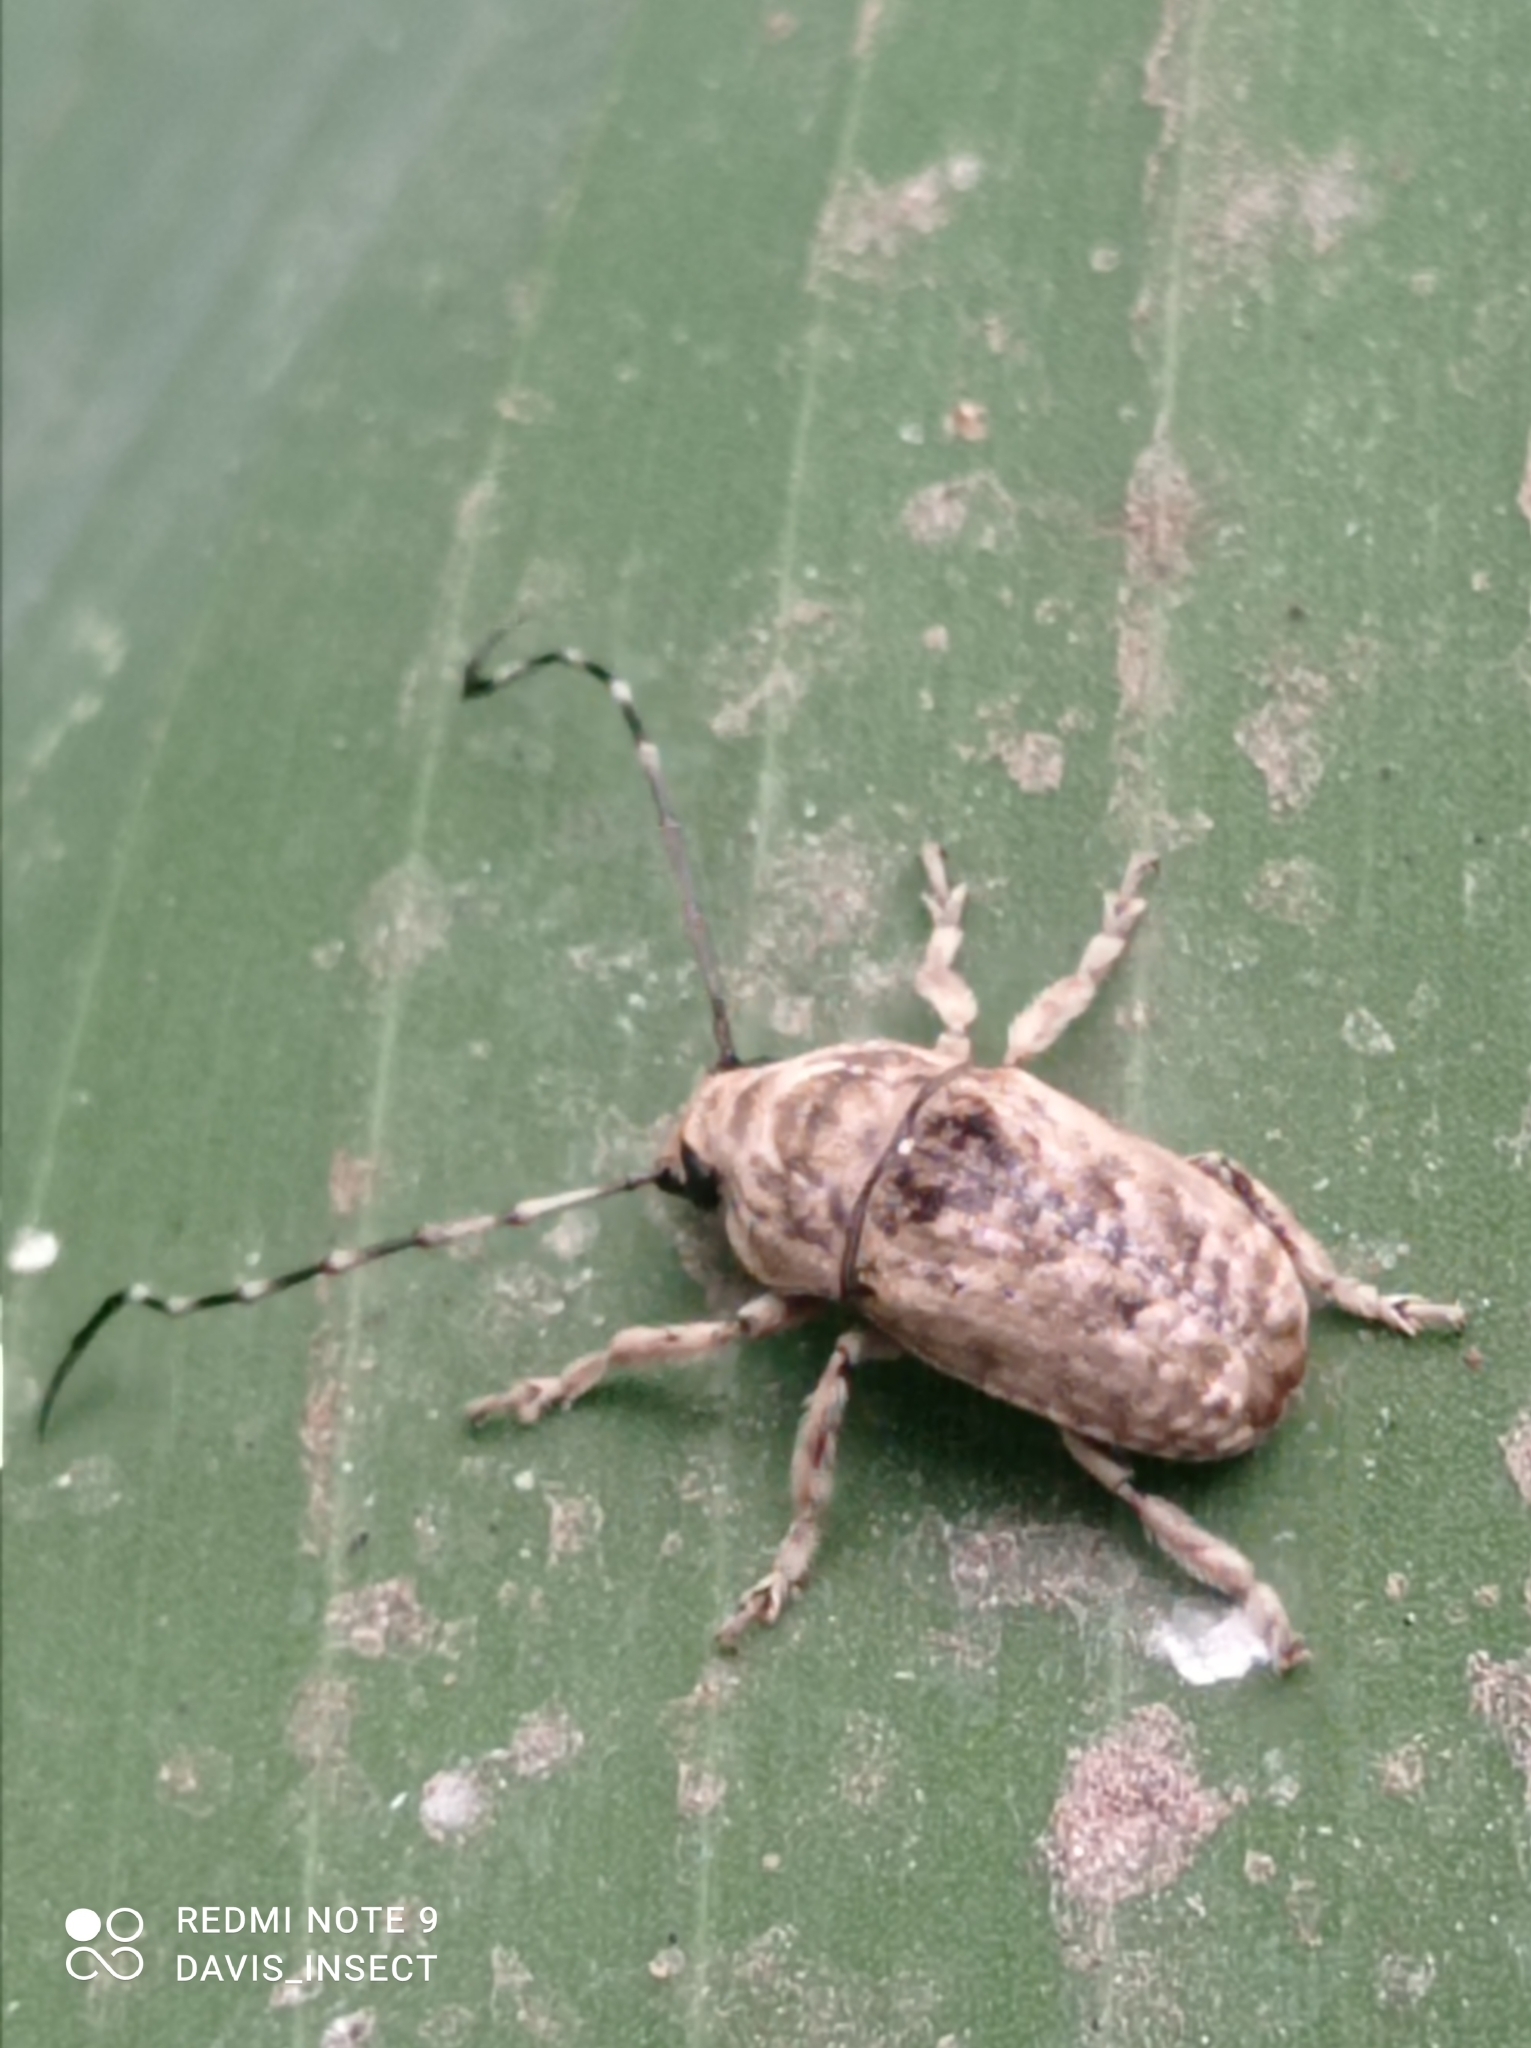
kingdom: Animalia
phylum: Arthropoda
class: Insecta
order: Coleoptera
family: Anthribidae
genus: Phloeobius
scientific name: Phloeobius pilipes
